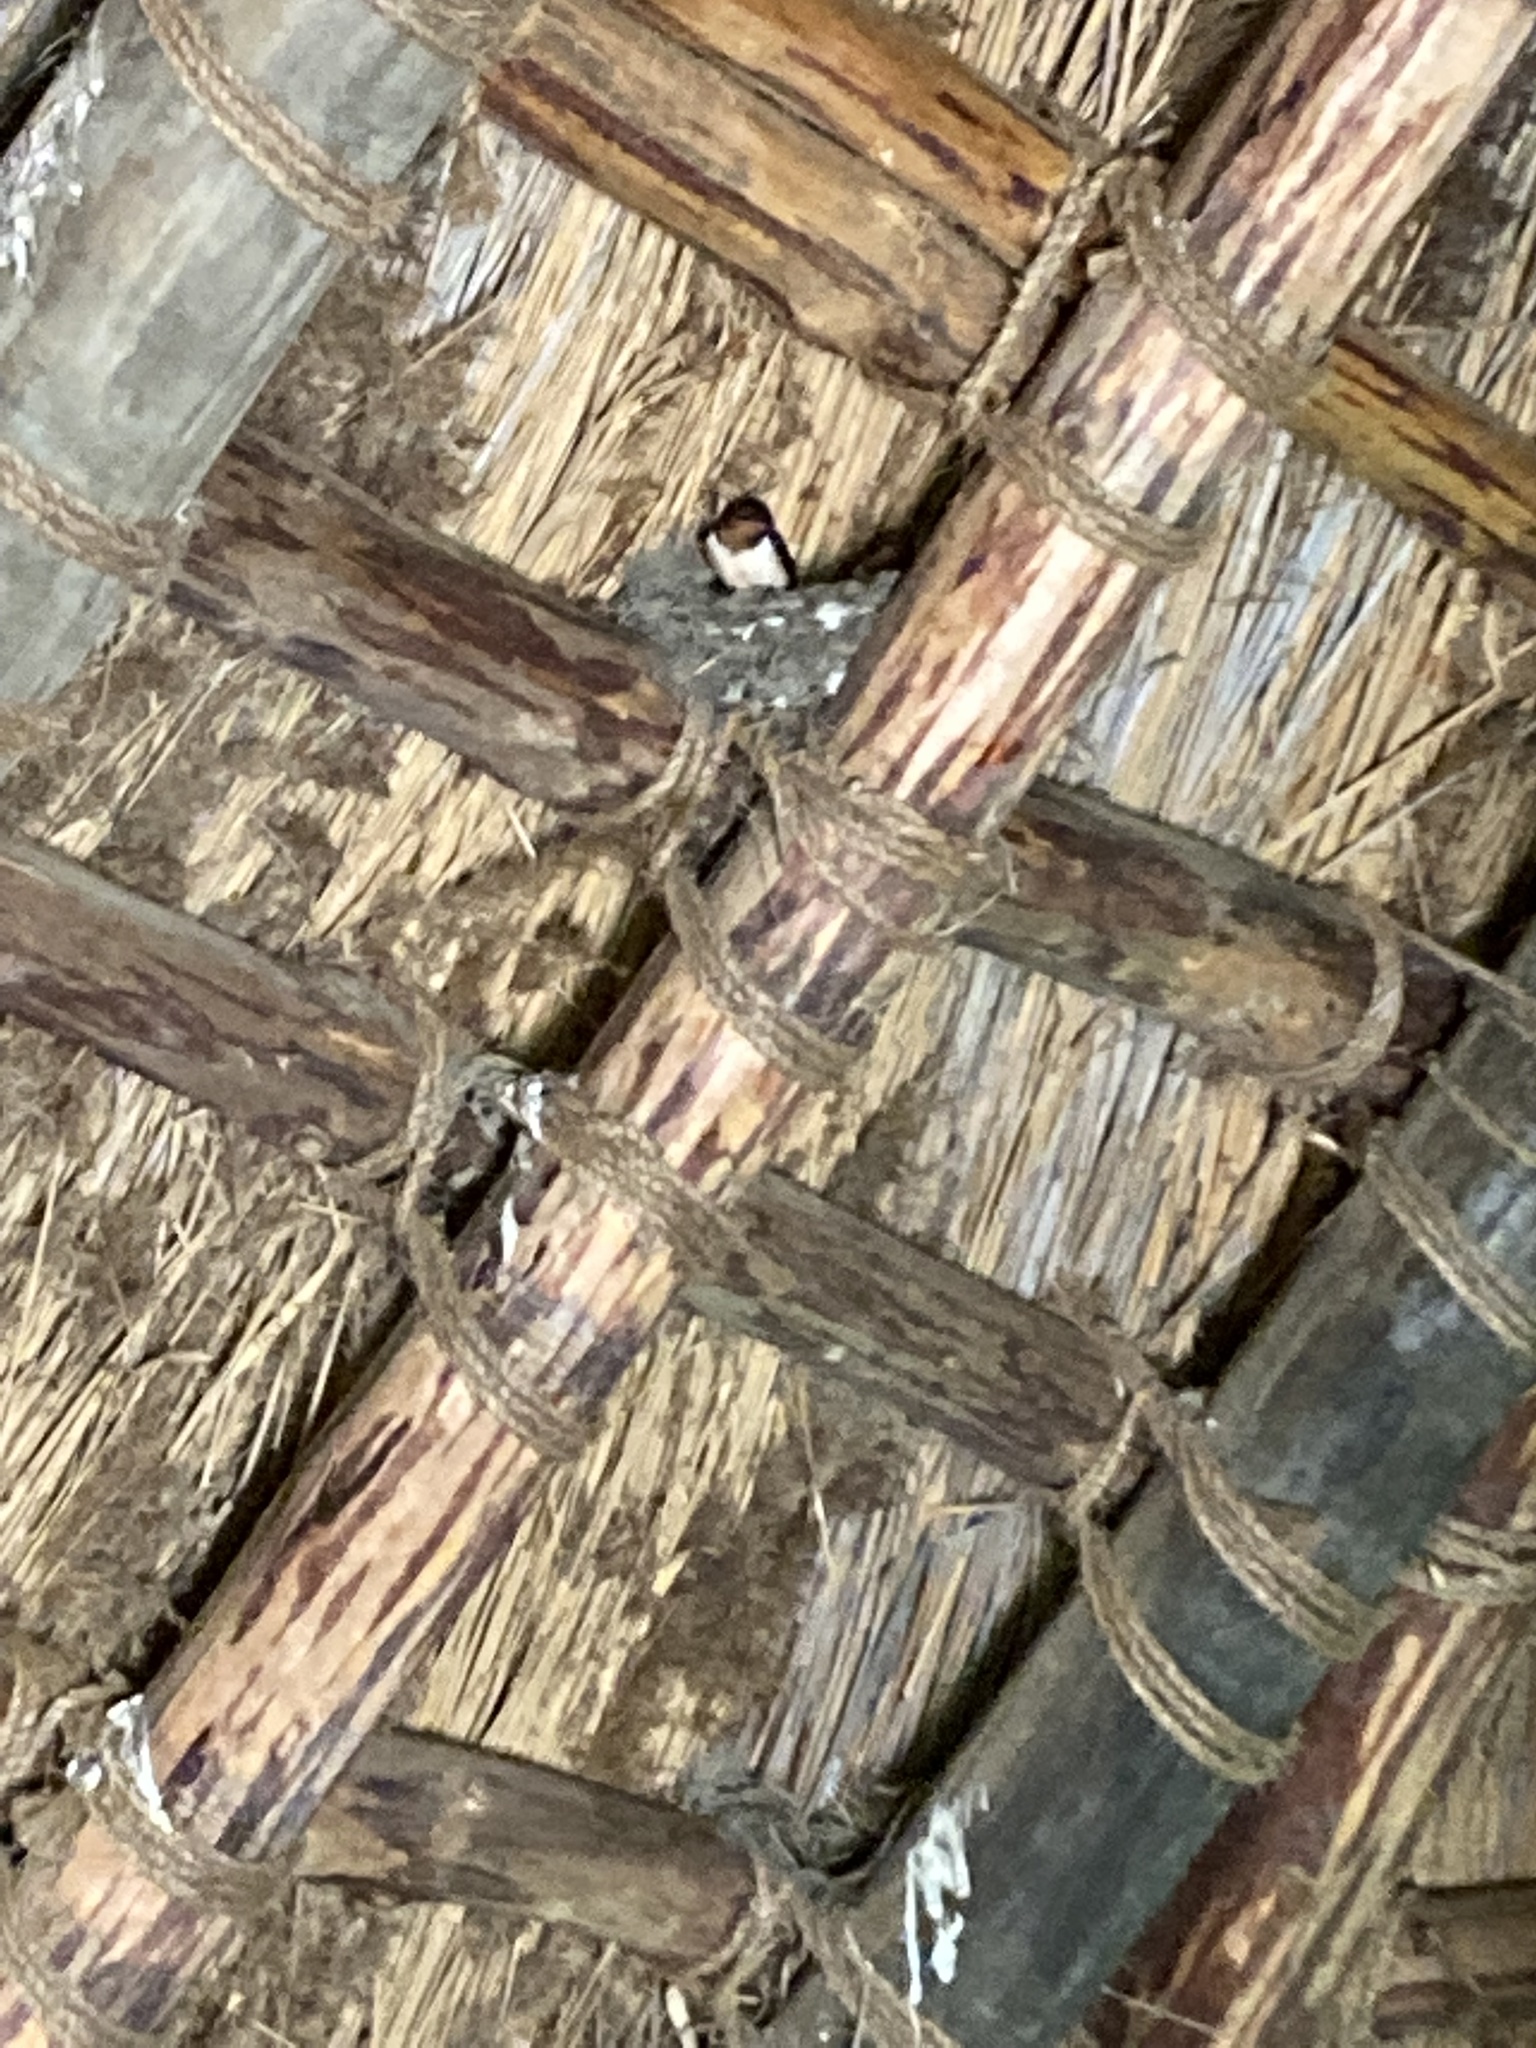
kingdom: Animalia
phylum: Chordata
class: Aves
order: Passeriformes
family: Hirundinidae
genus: Hirundo
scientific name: Hirundo rustica
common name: Barn swallow
